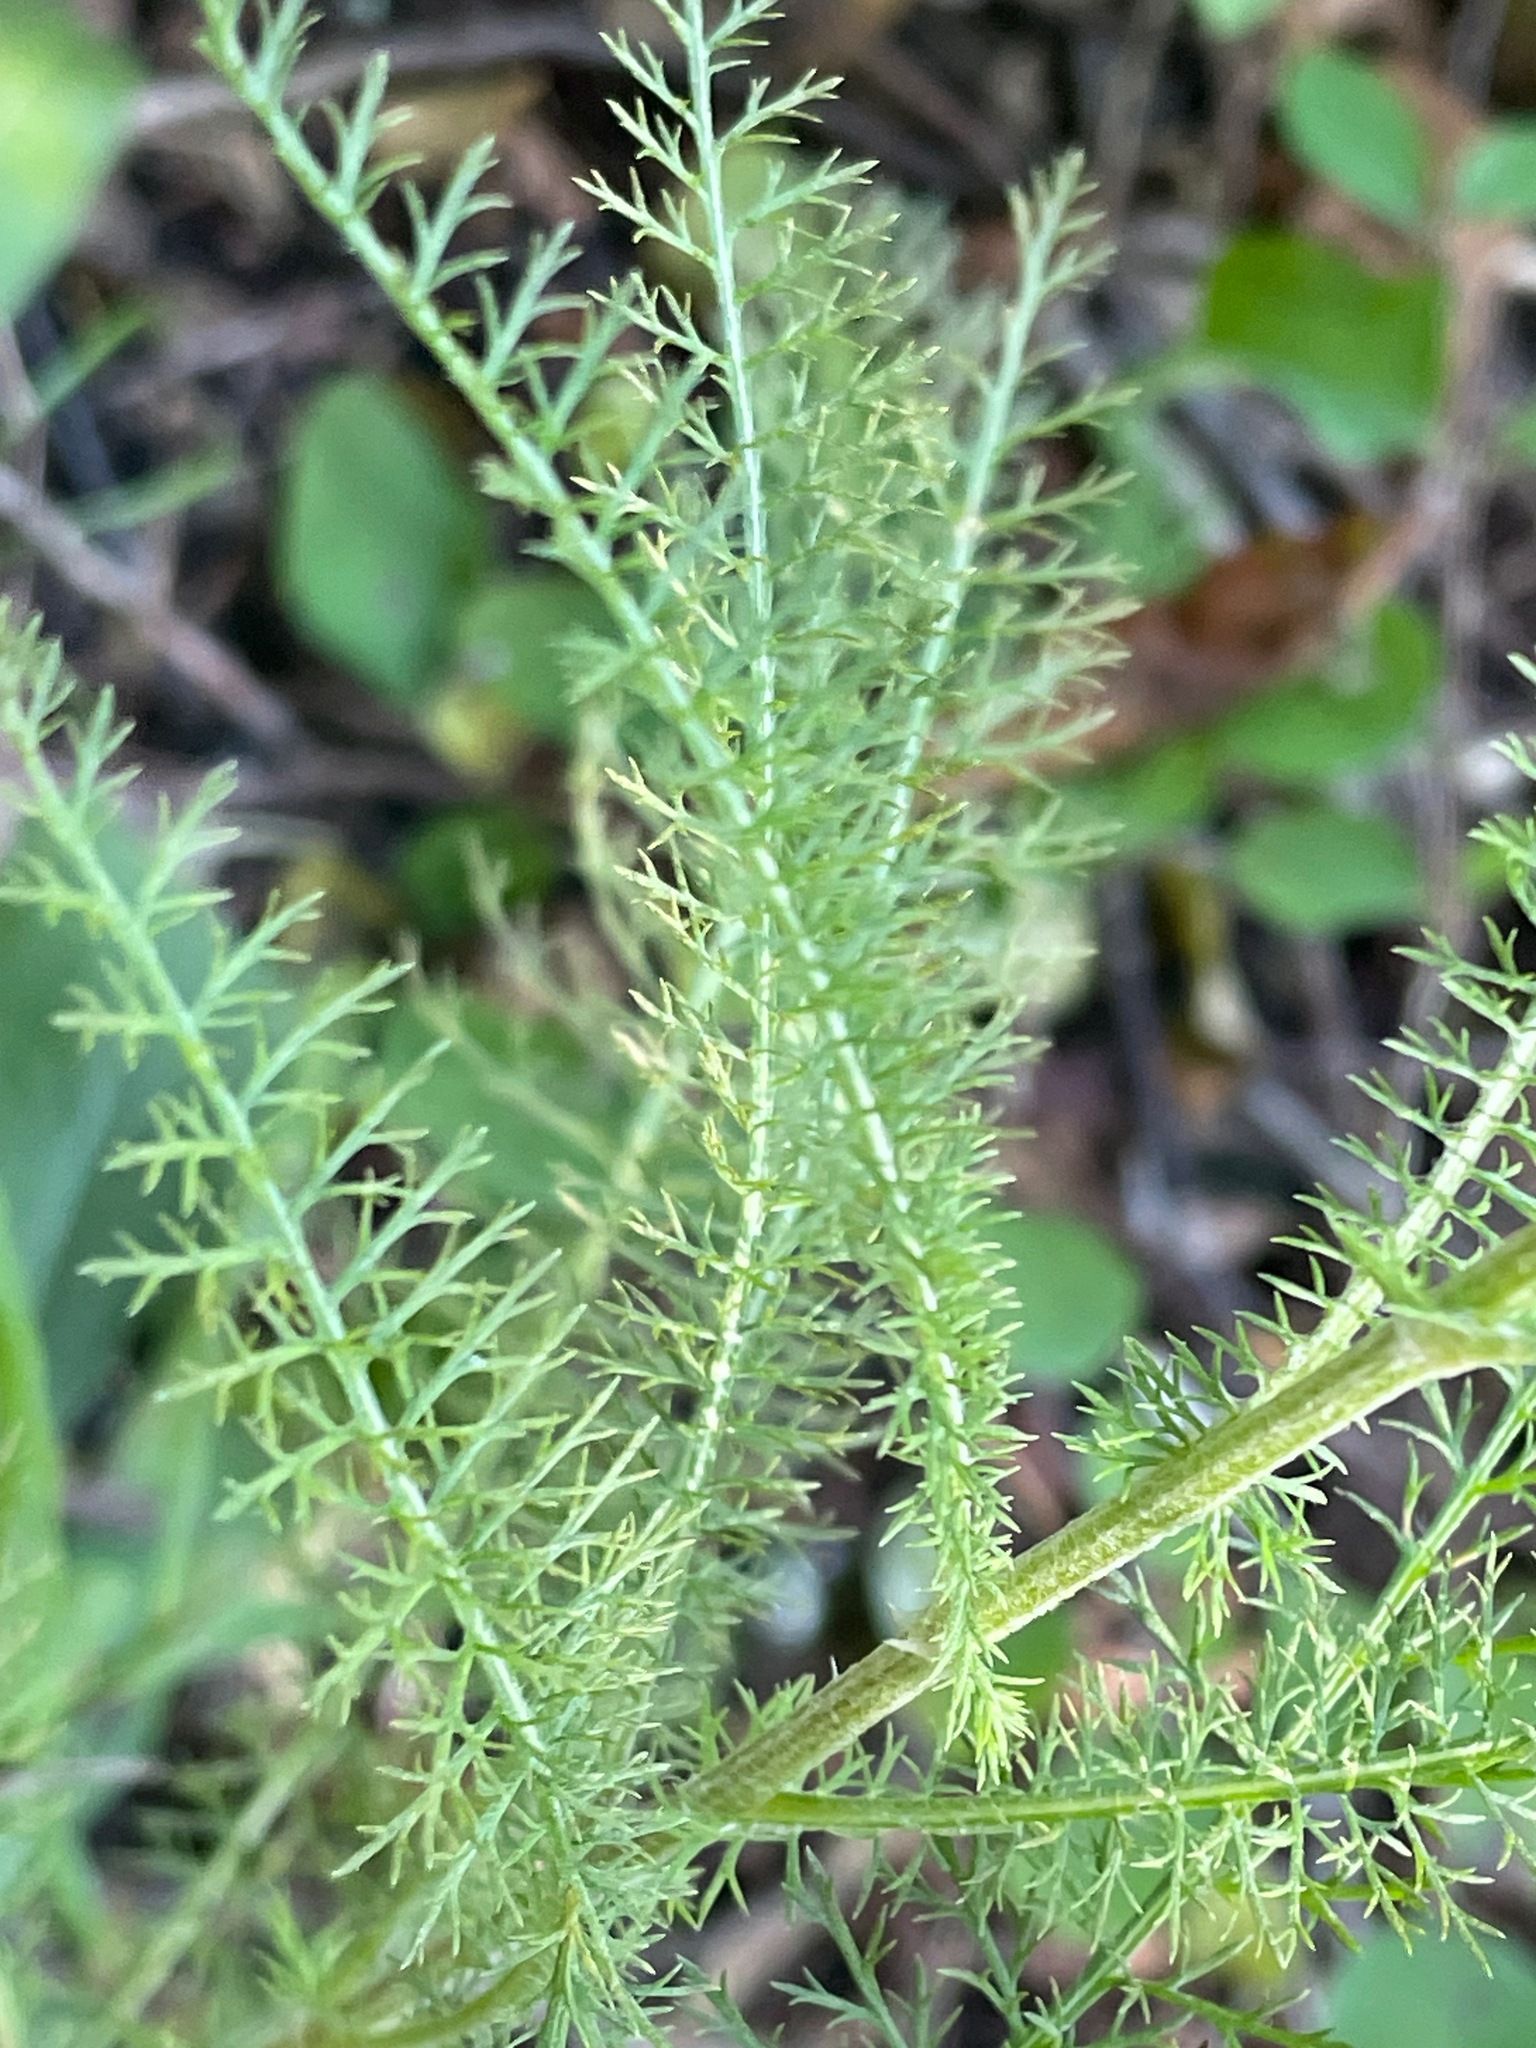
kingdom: Plantae
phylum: Tracheophyta
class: Magnoliopsida
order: Asterales
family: Asteraceae
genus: Achillea
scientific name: Achillea millefolium
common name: Yarrow
